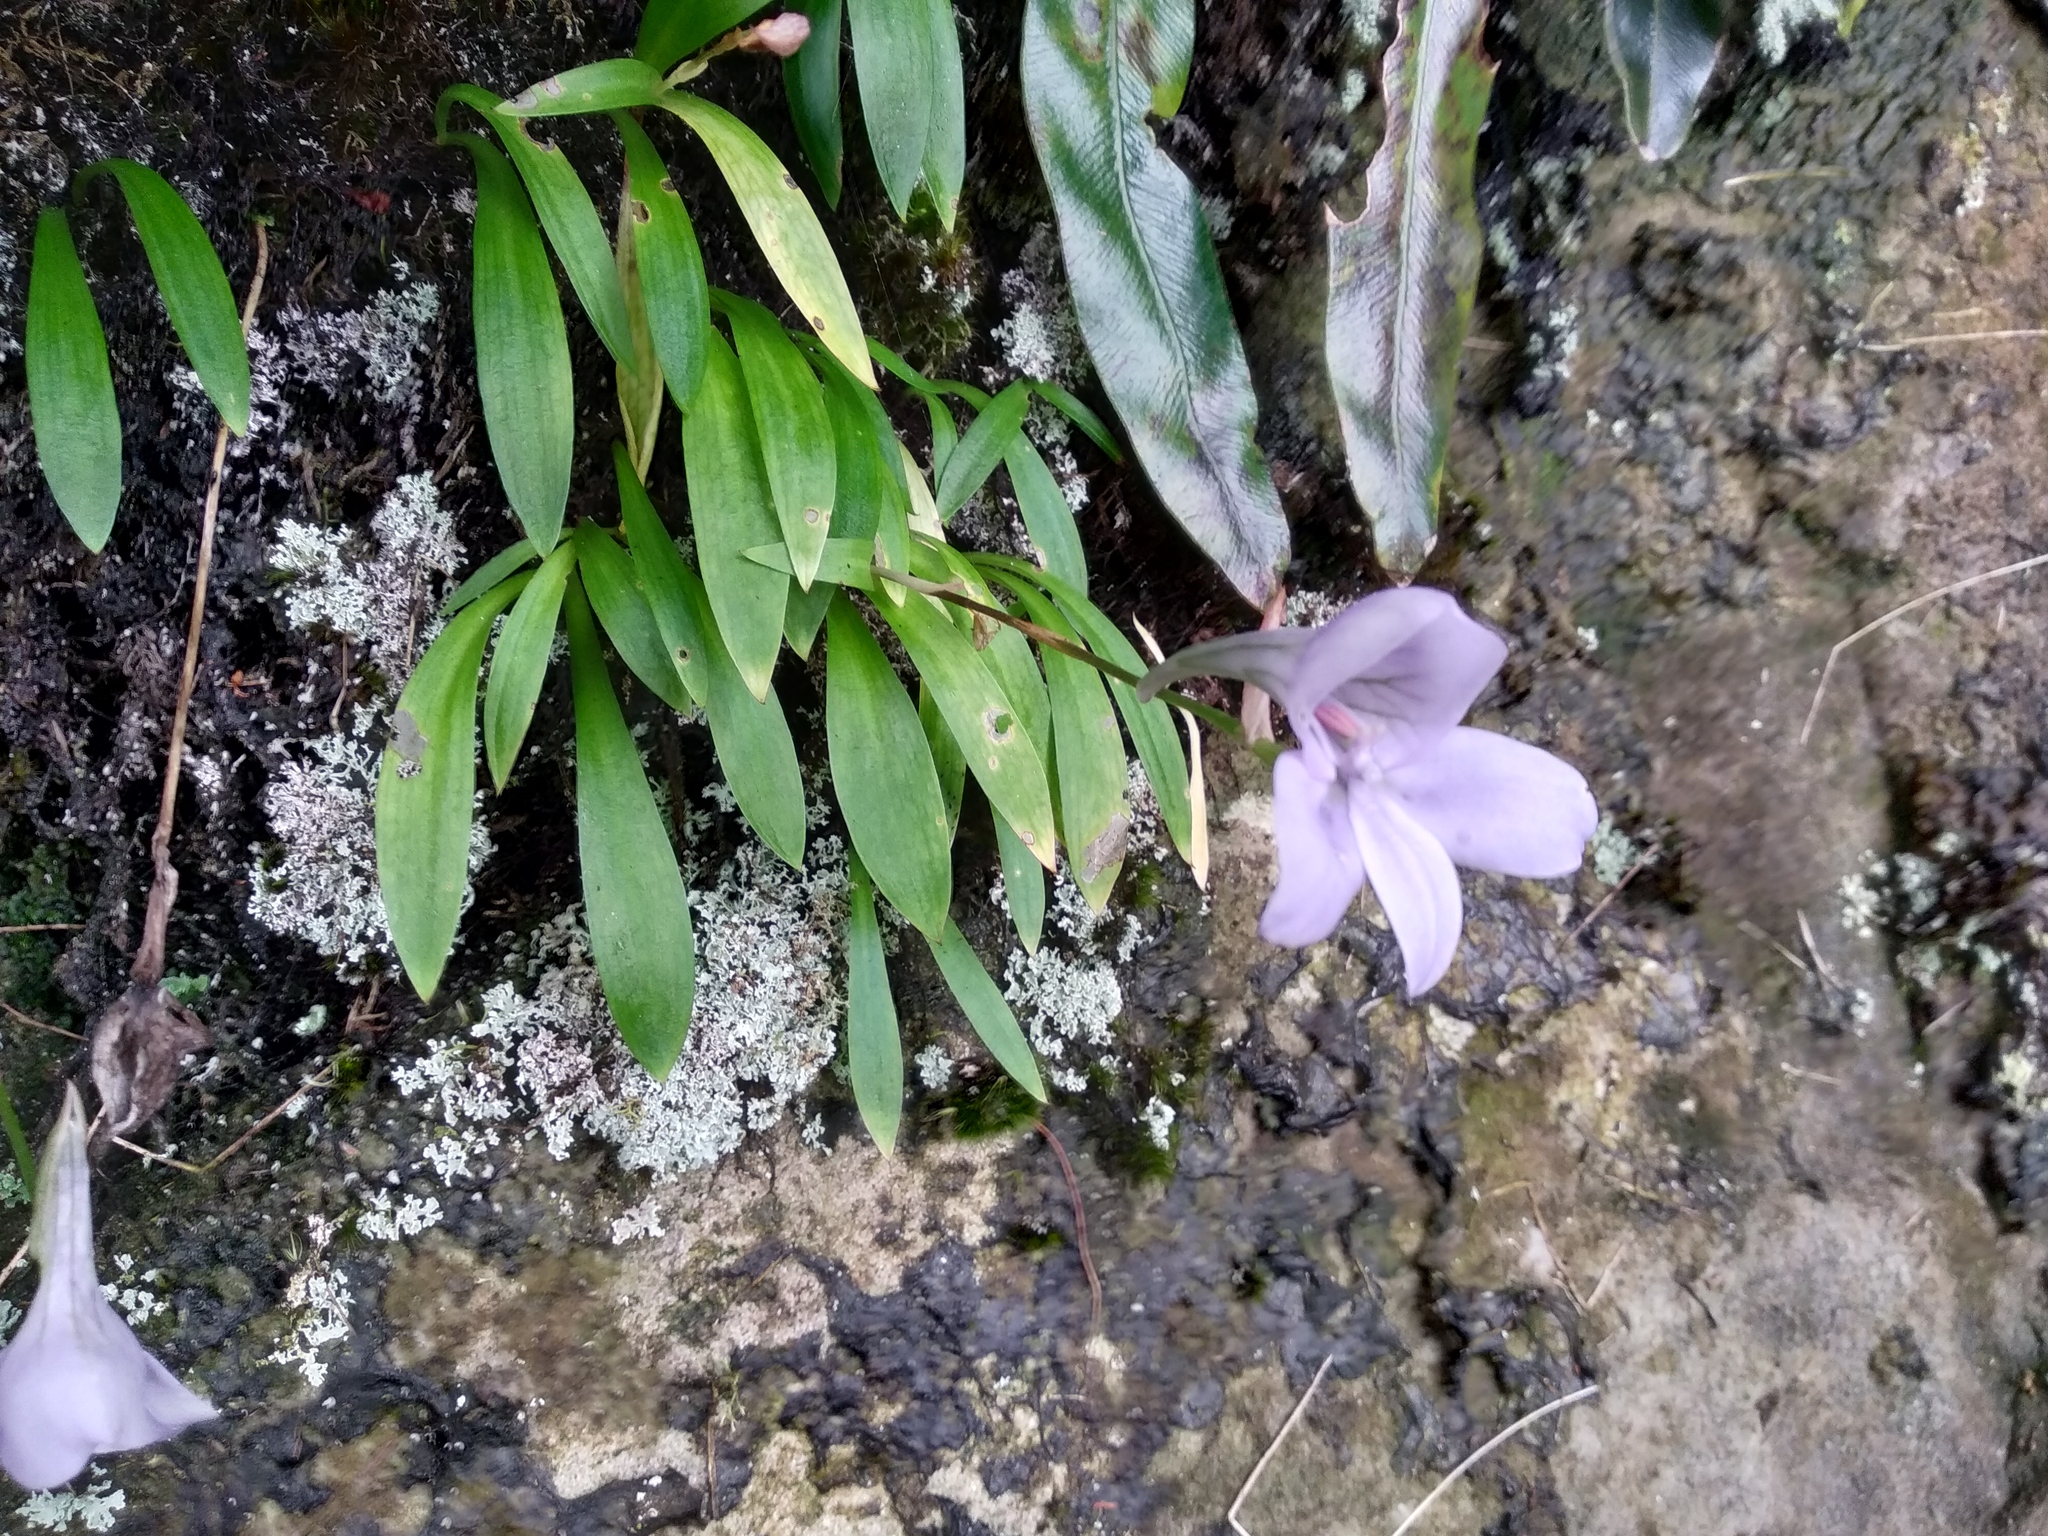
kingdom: Plantae
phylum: Tracheophyta
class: Liliopsida
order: Asparagales
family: Orchidaceae
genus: Disa
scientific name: Disa longicornu
